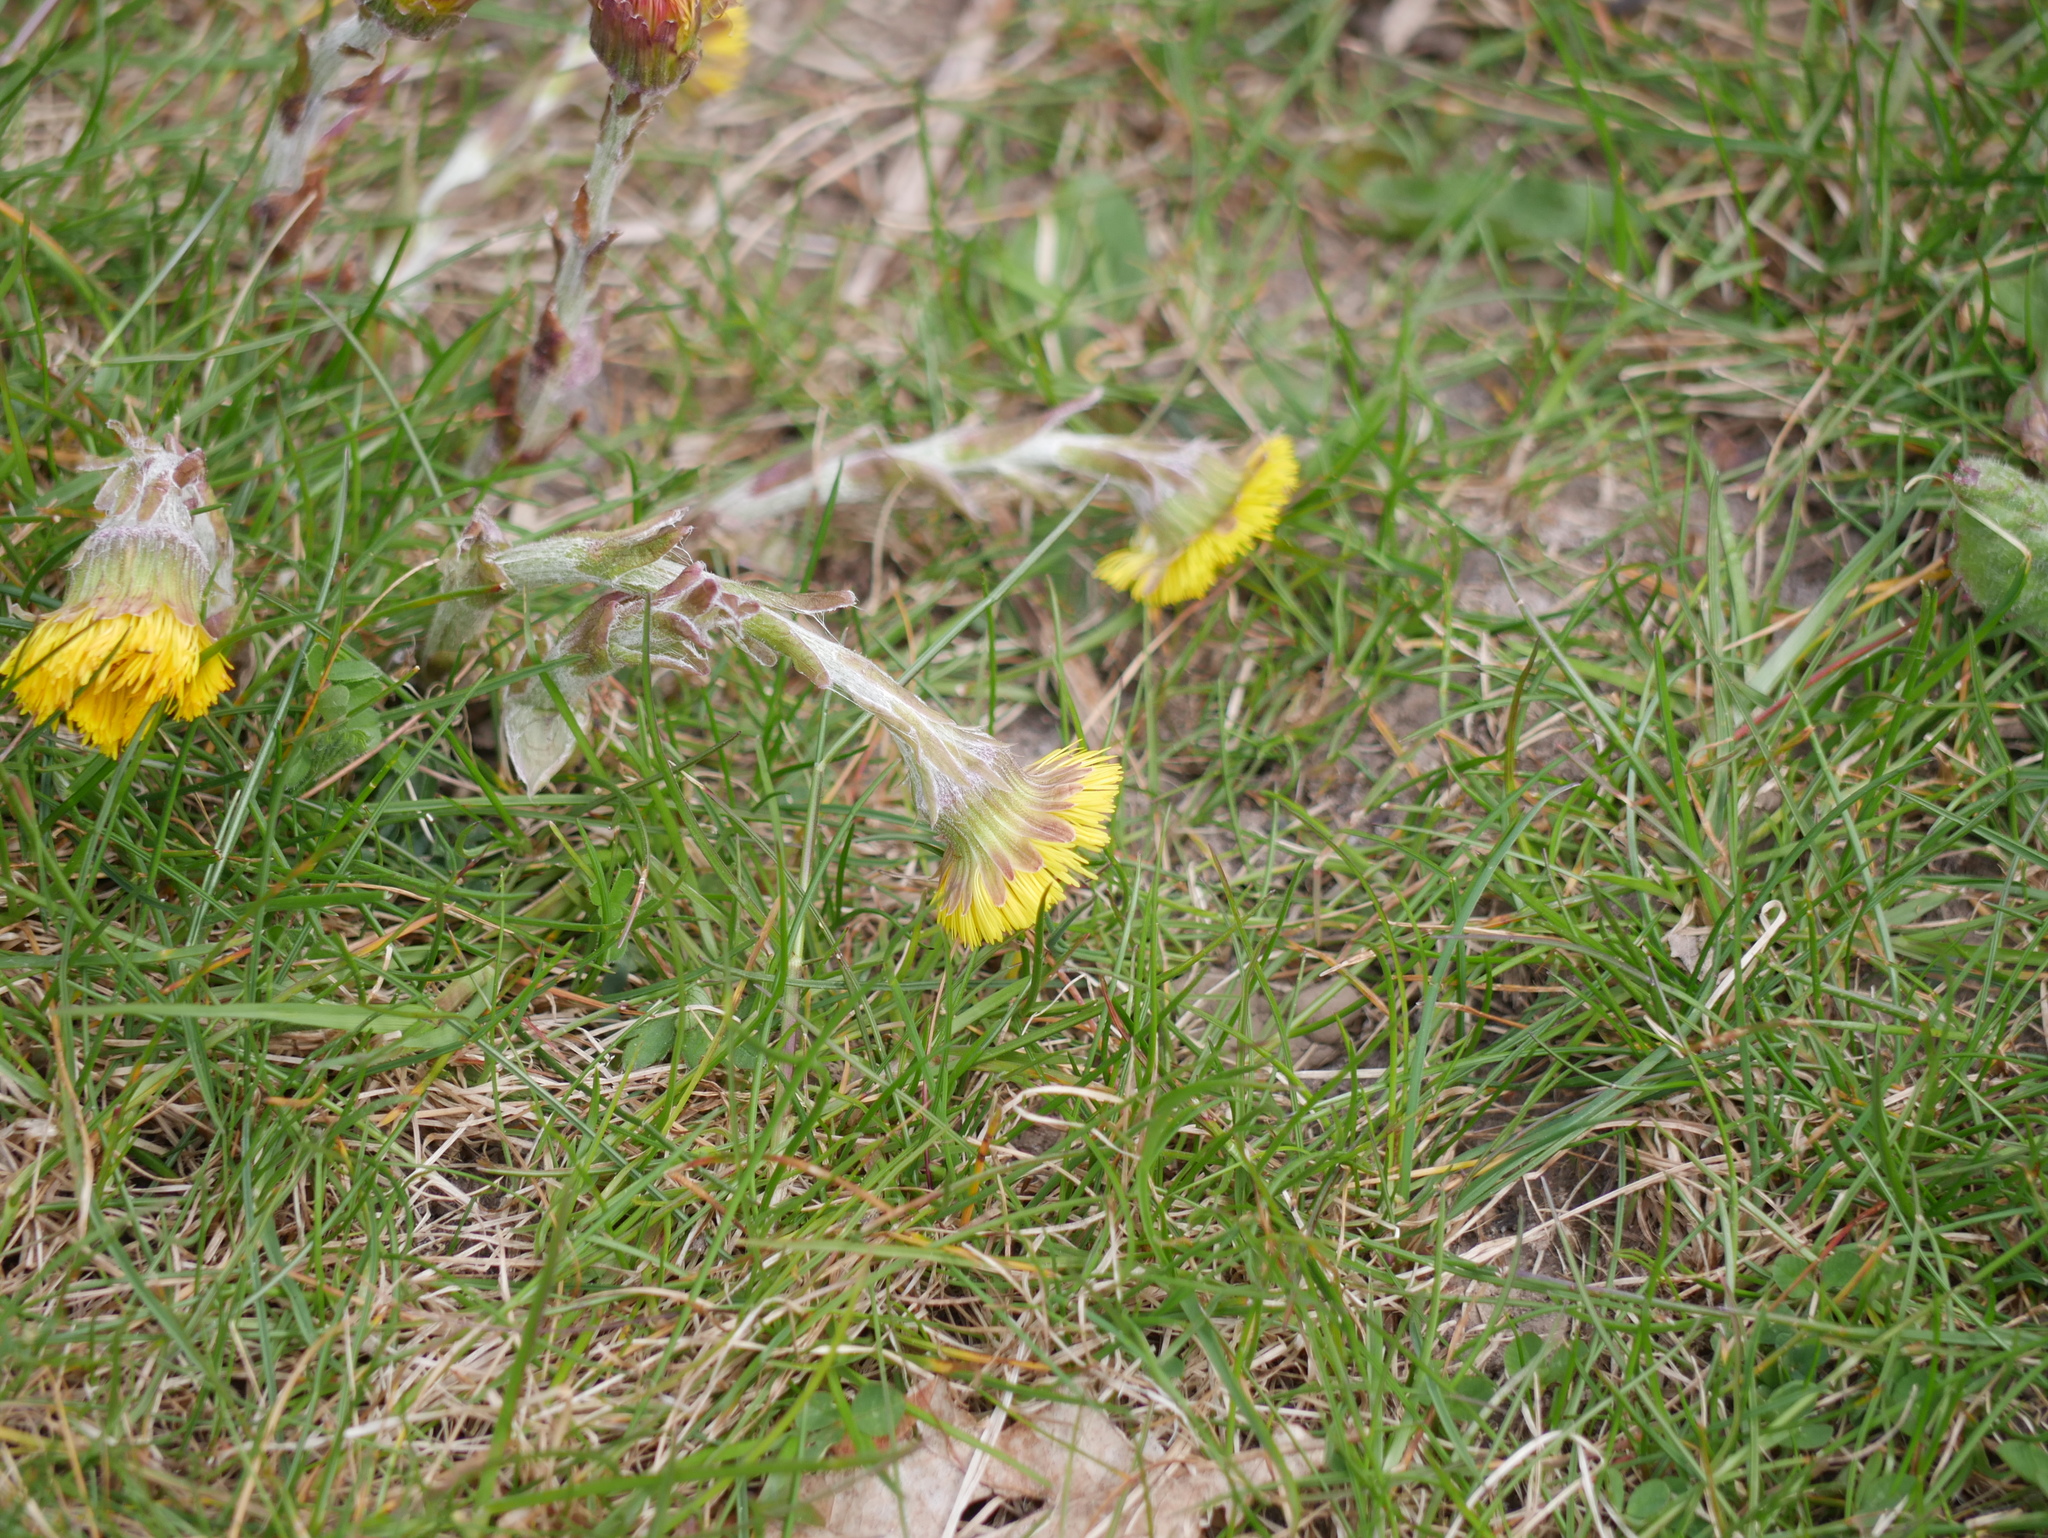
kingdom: Plantae
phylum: Tracheophyta
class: Magnoliopsida
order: Asterales
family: Asteraceae
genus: Tussilago
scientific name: Tussilago farfara
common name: Coltsfoot
